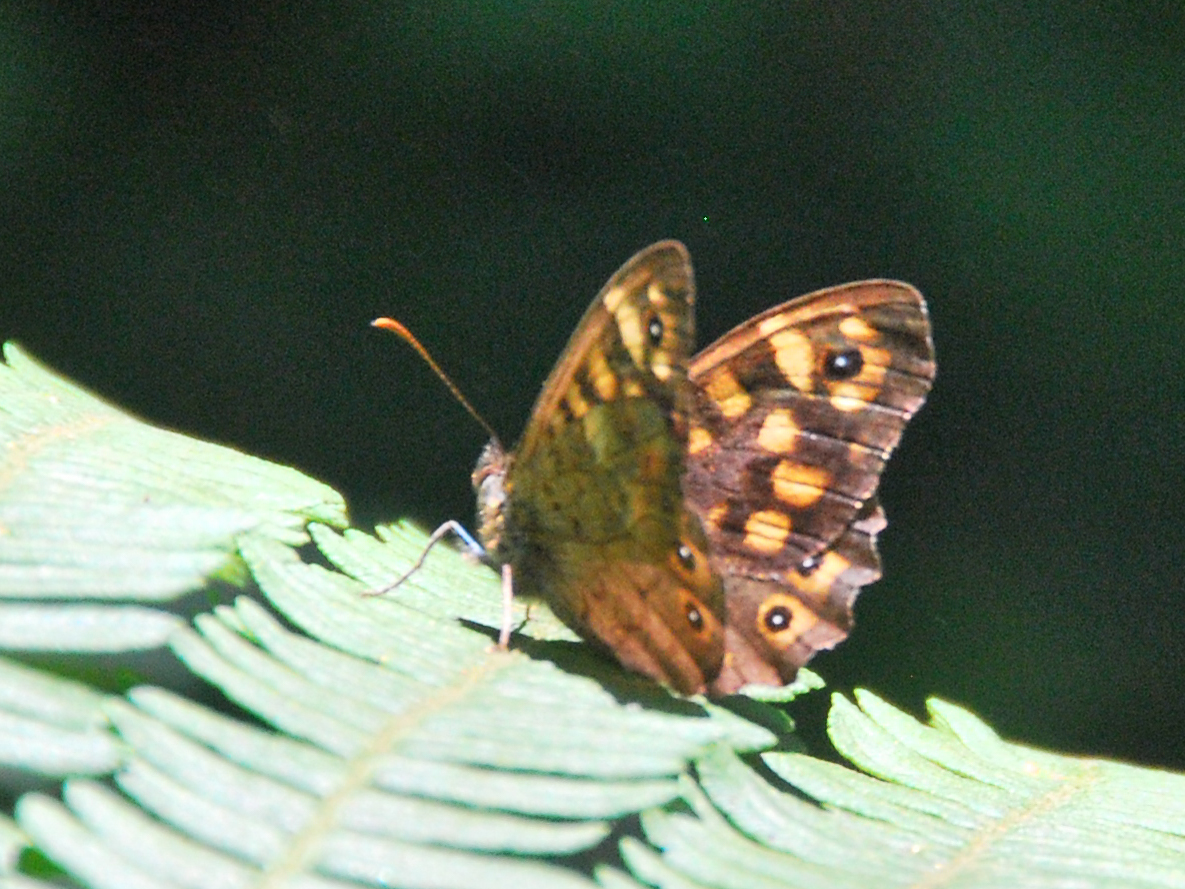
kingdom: Animalia
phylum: Arthropoda
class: Insecta
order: Lepidoptera
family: Nymphalidae
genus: Pararge
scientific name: Pararge aegeria
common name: Speckled wood
